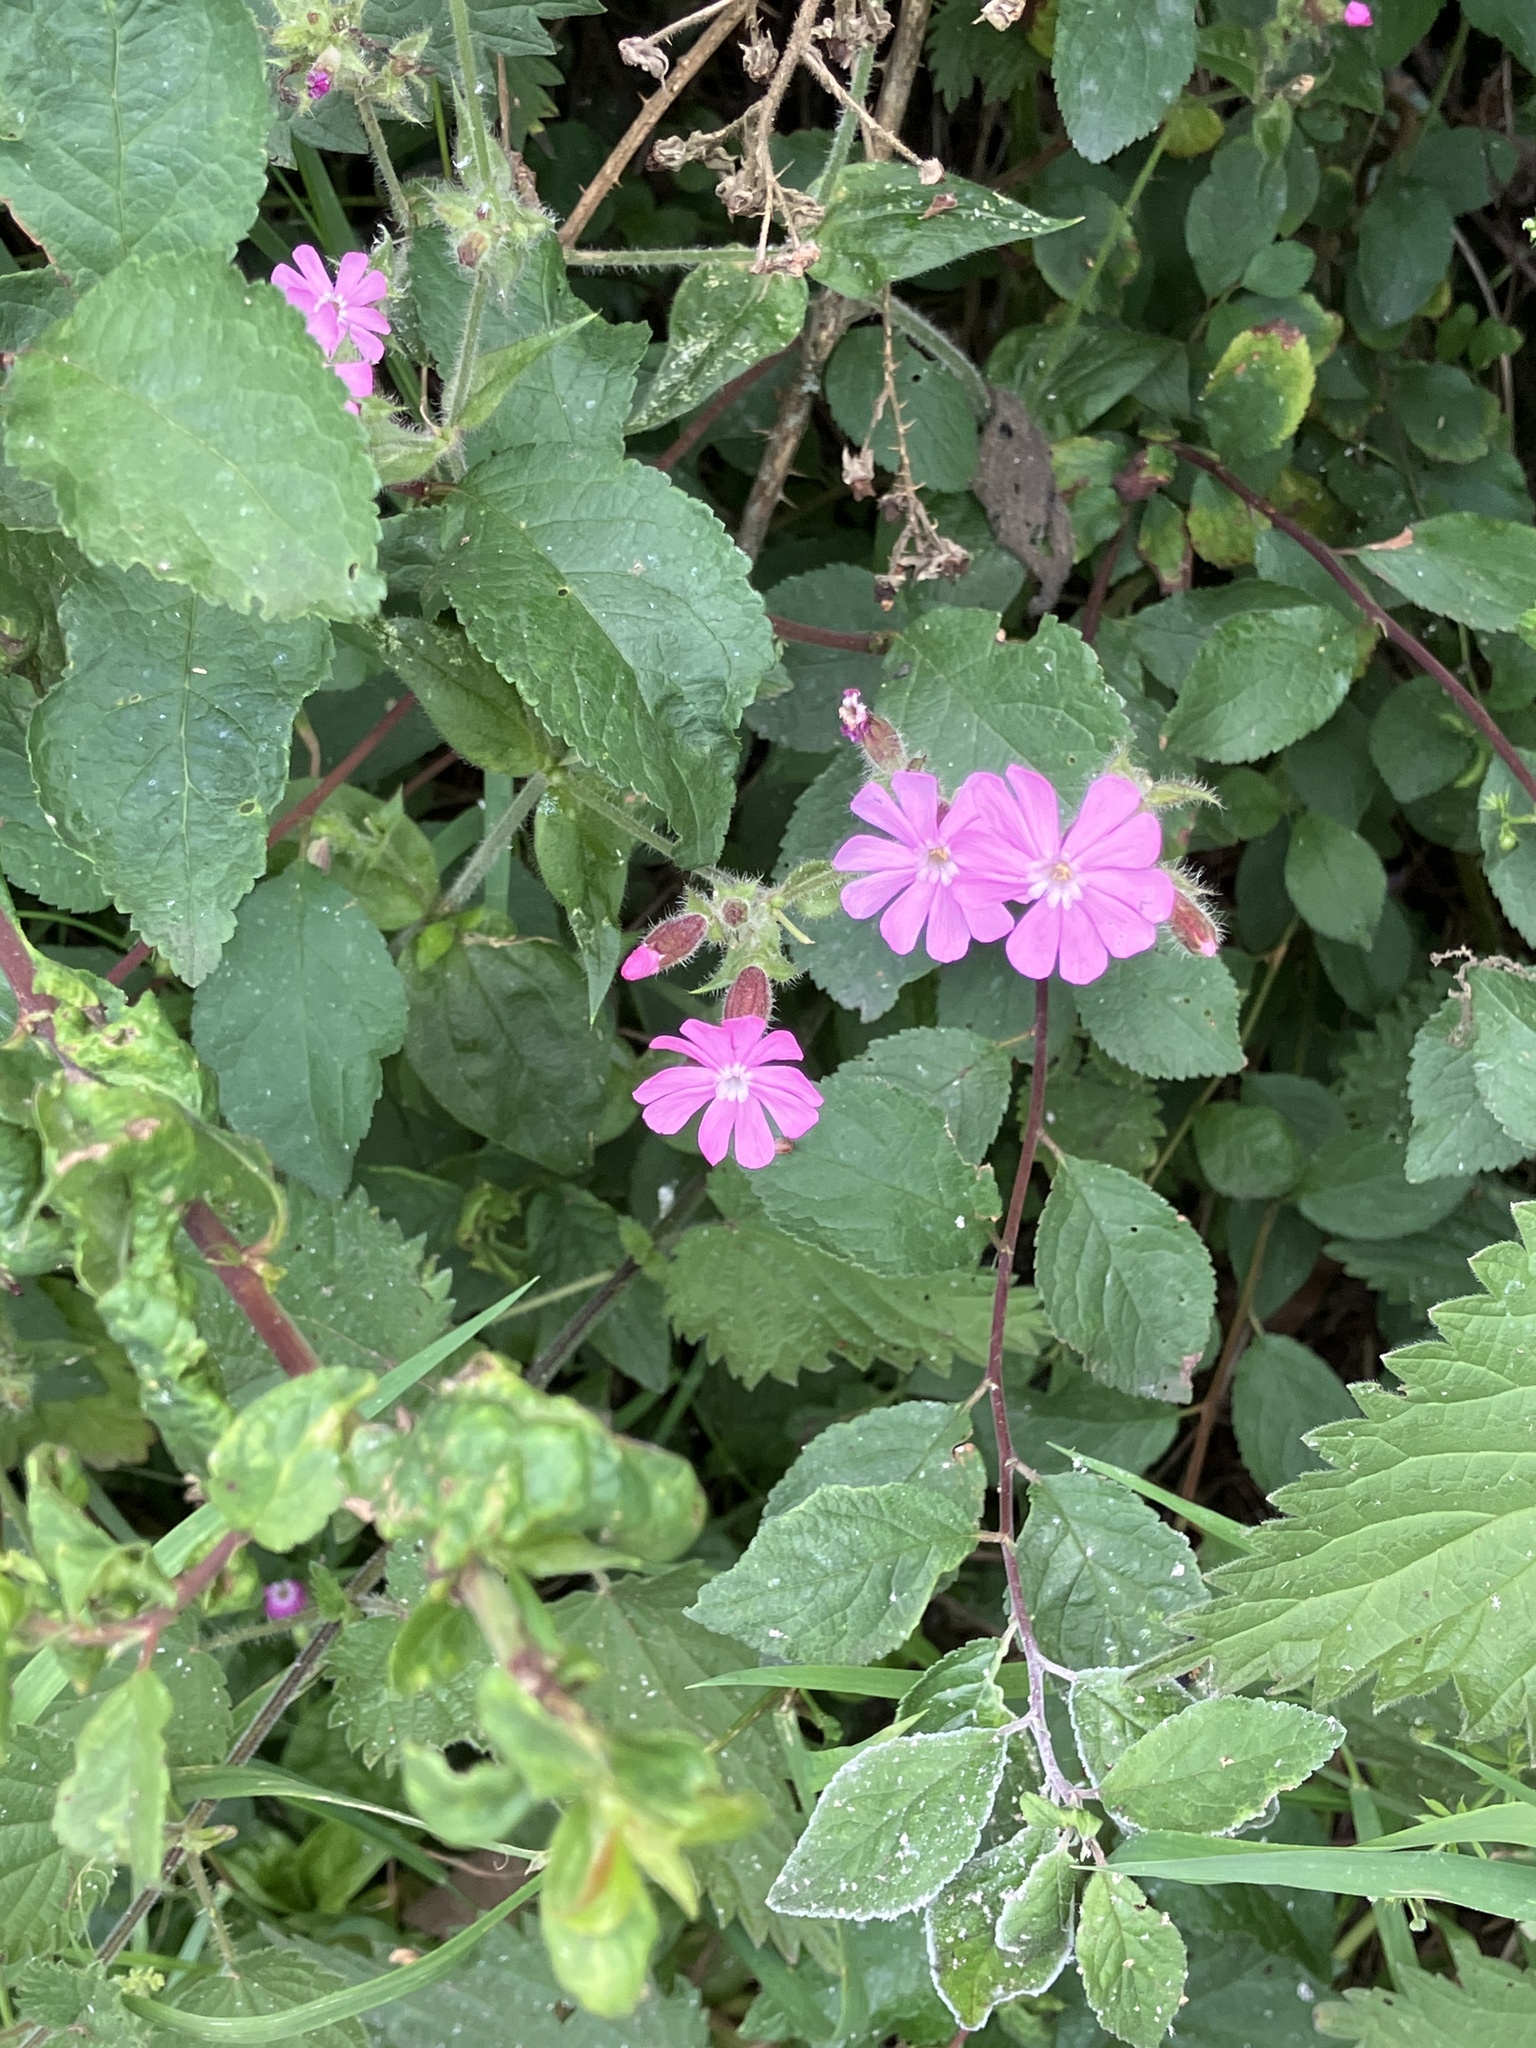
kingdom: Plantae
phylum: Tracheophyta
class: Magnoliopsida
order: Caryophyllales
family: Caryophyllaceae
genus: Silene
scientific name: Silene dioica
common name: Red campion
